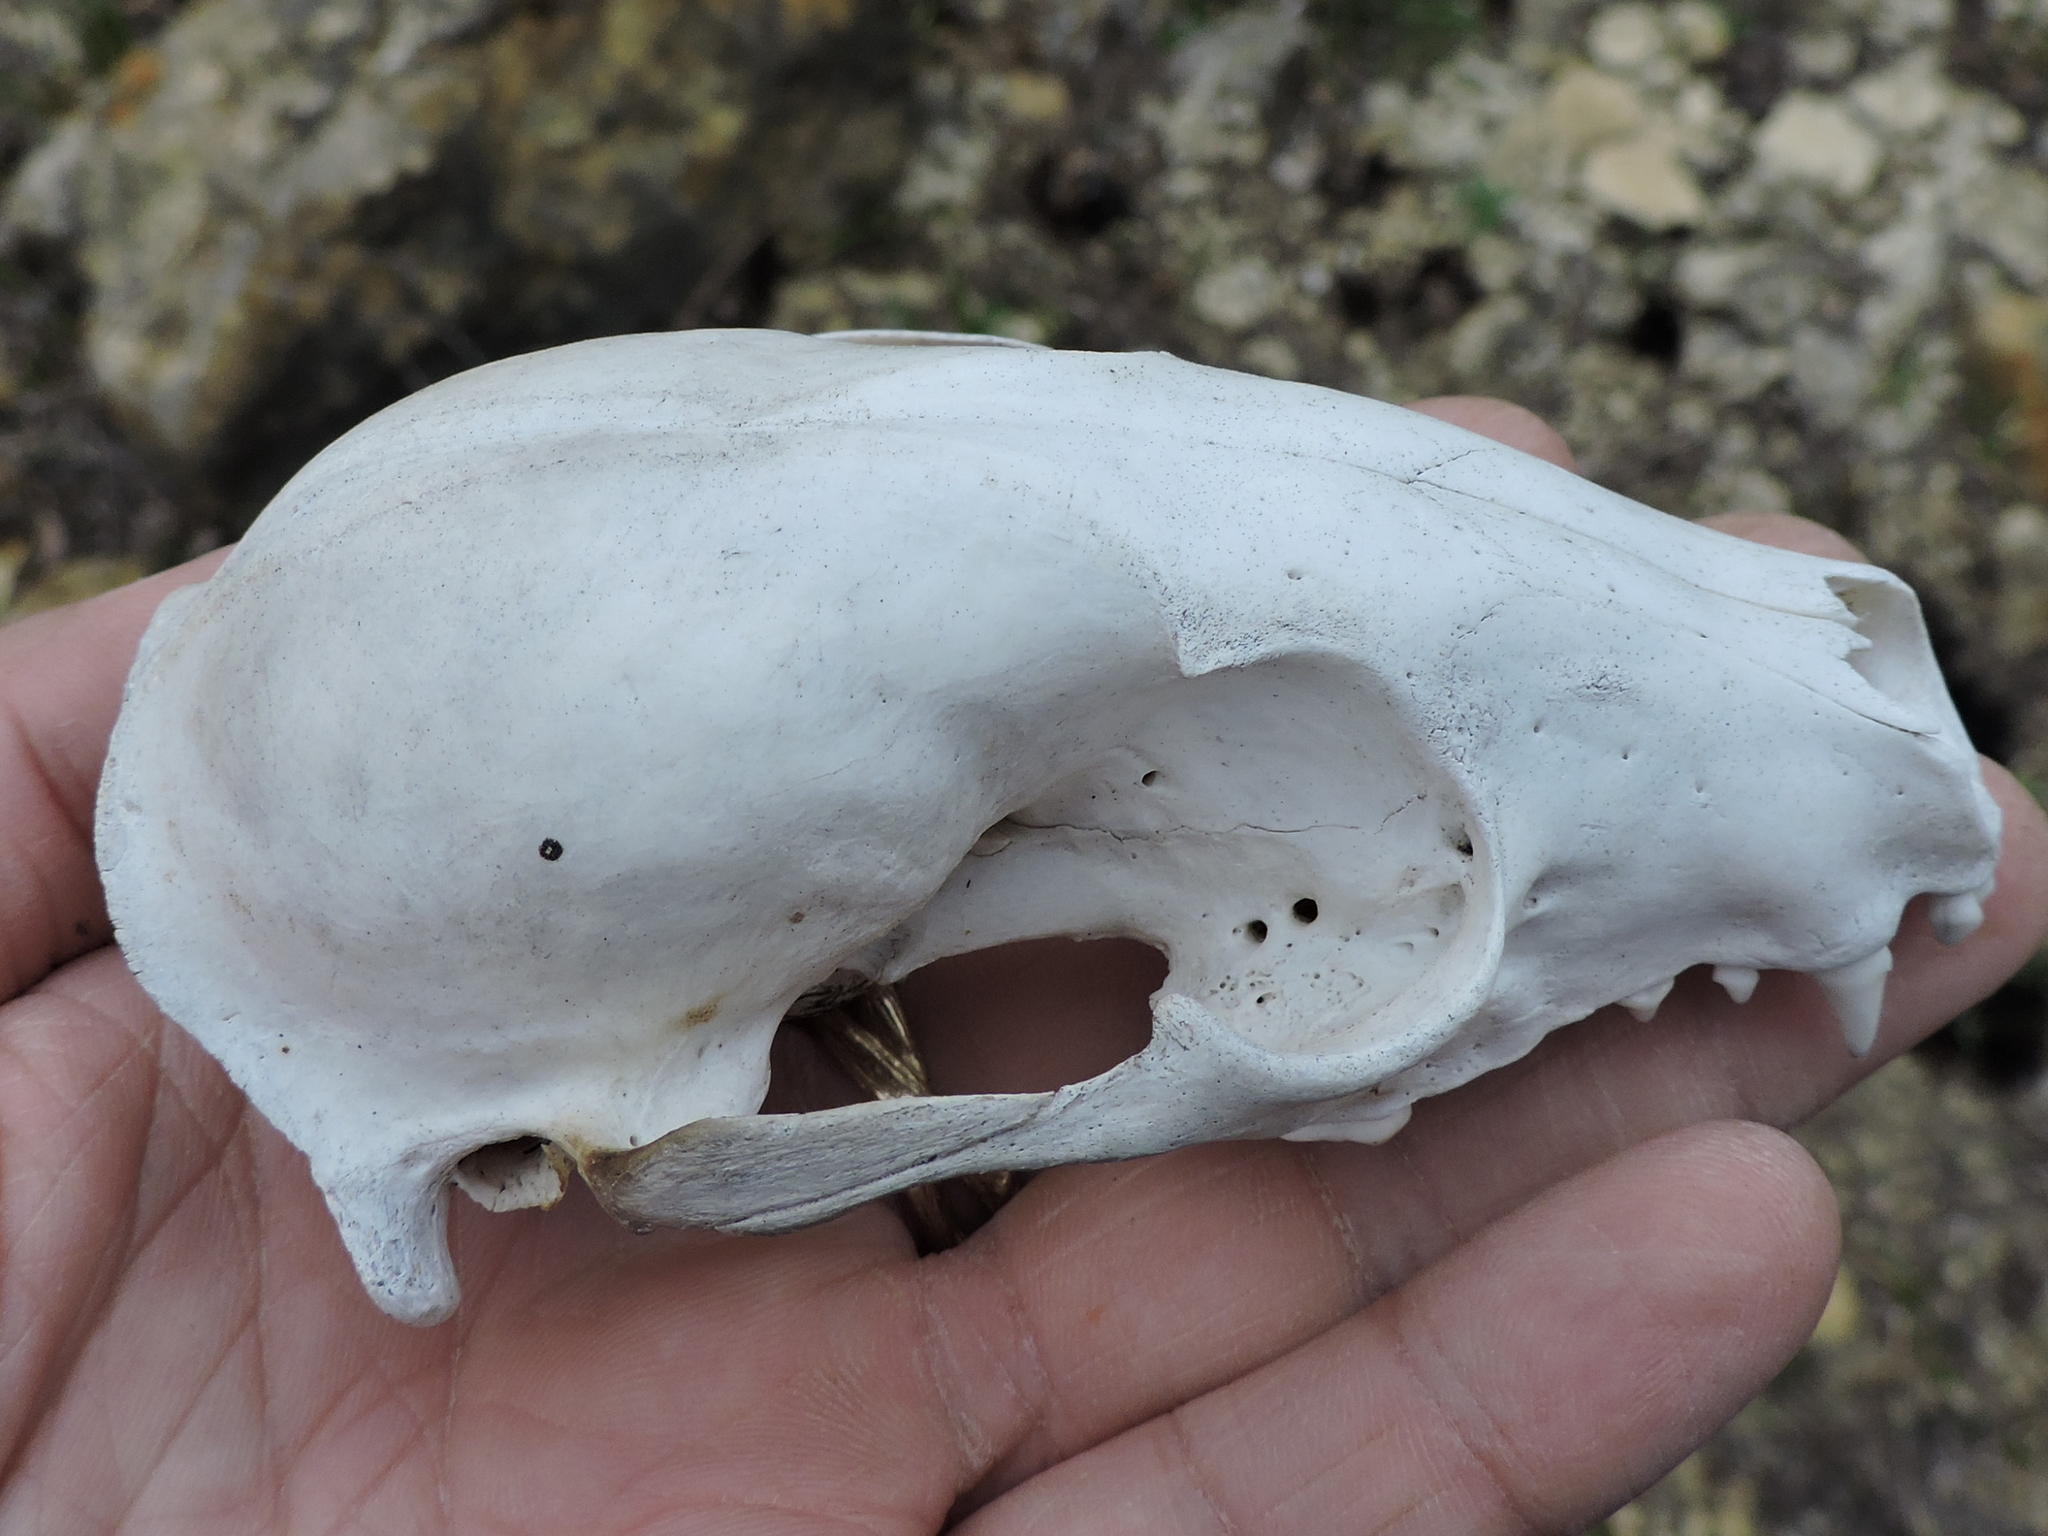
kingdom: Animalia
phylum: Chordata
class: Mammalia
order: Carnivora
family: Procyonidae
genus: Procyon
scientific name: Procyon lotor
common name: Raccoon
